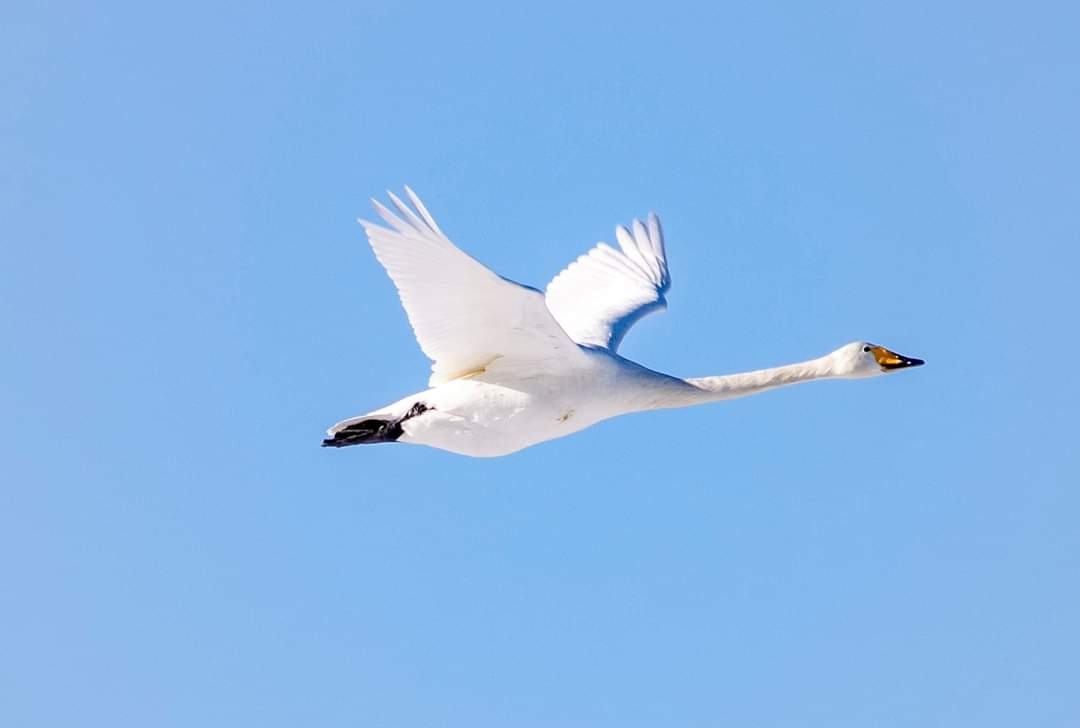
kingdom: Animalia
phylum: Chordata
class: Aves
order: Anseriformes
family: Anatidae
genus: Cygnus
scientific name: Cygnus cygnus
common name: Whooper swan
